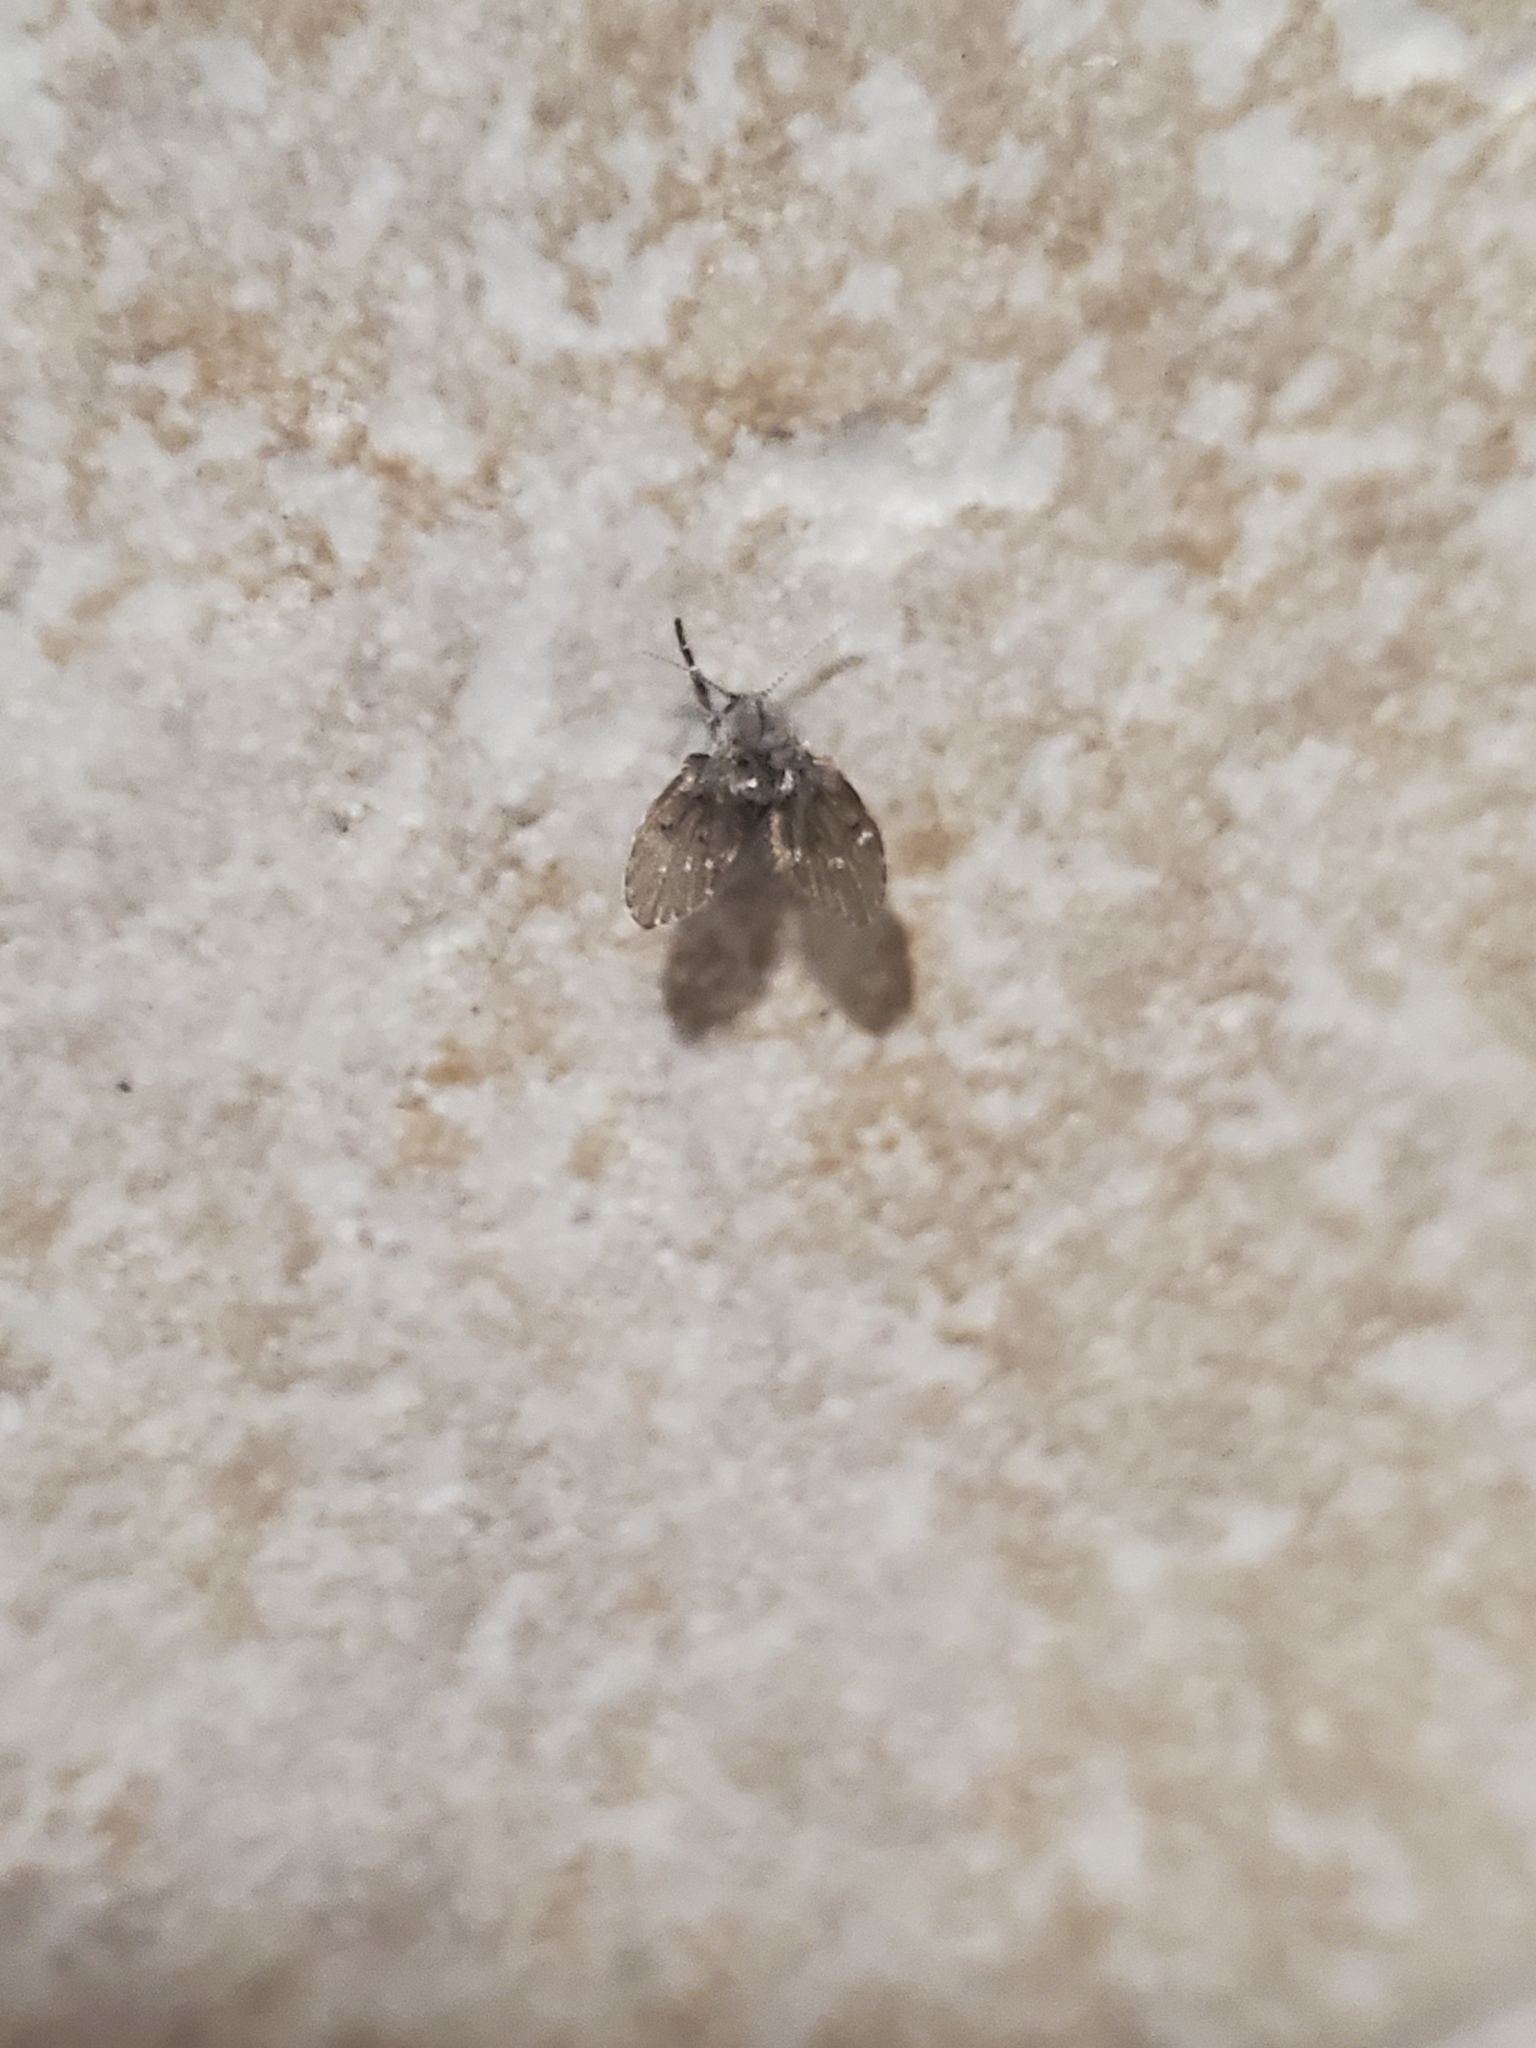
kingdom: Animalia
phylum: Arthropoda
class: Insecta
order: Diptera
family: Psychodidae
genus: Clogmia
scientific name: Clogmia albipunctatus
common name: White-spotted moth fly
